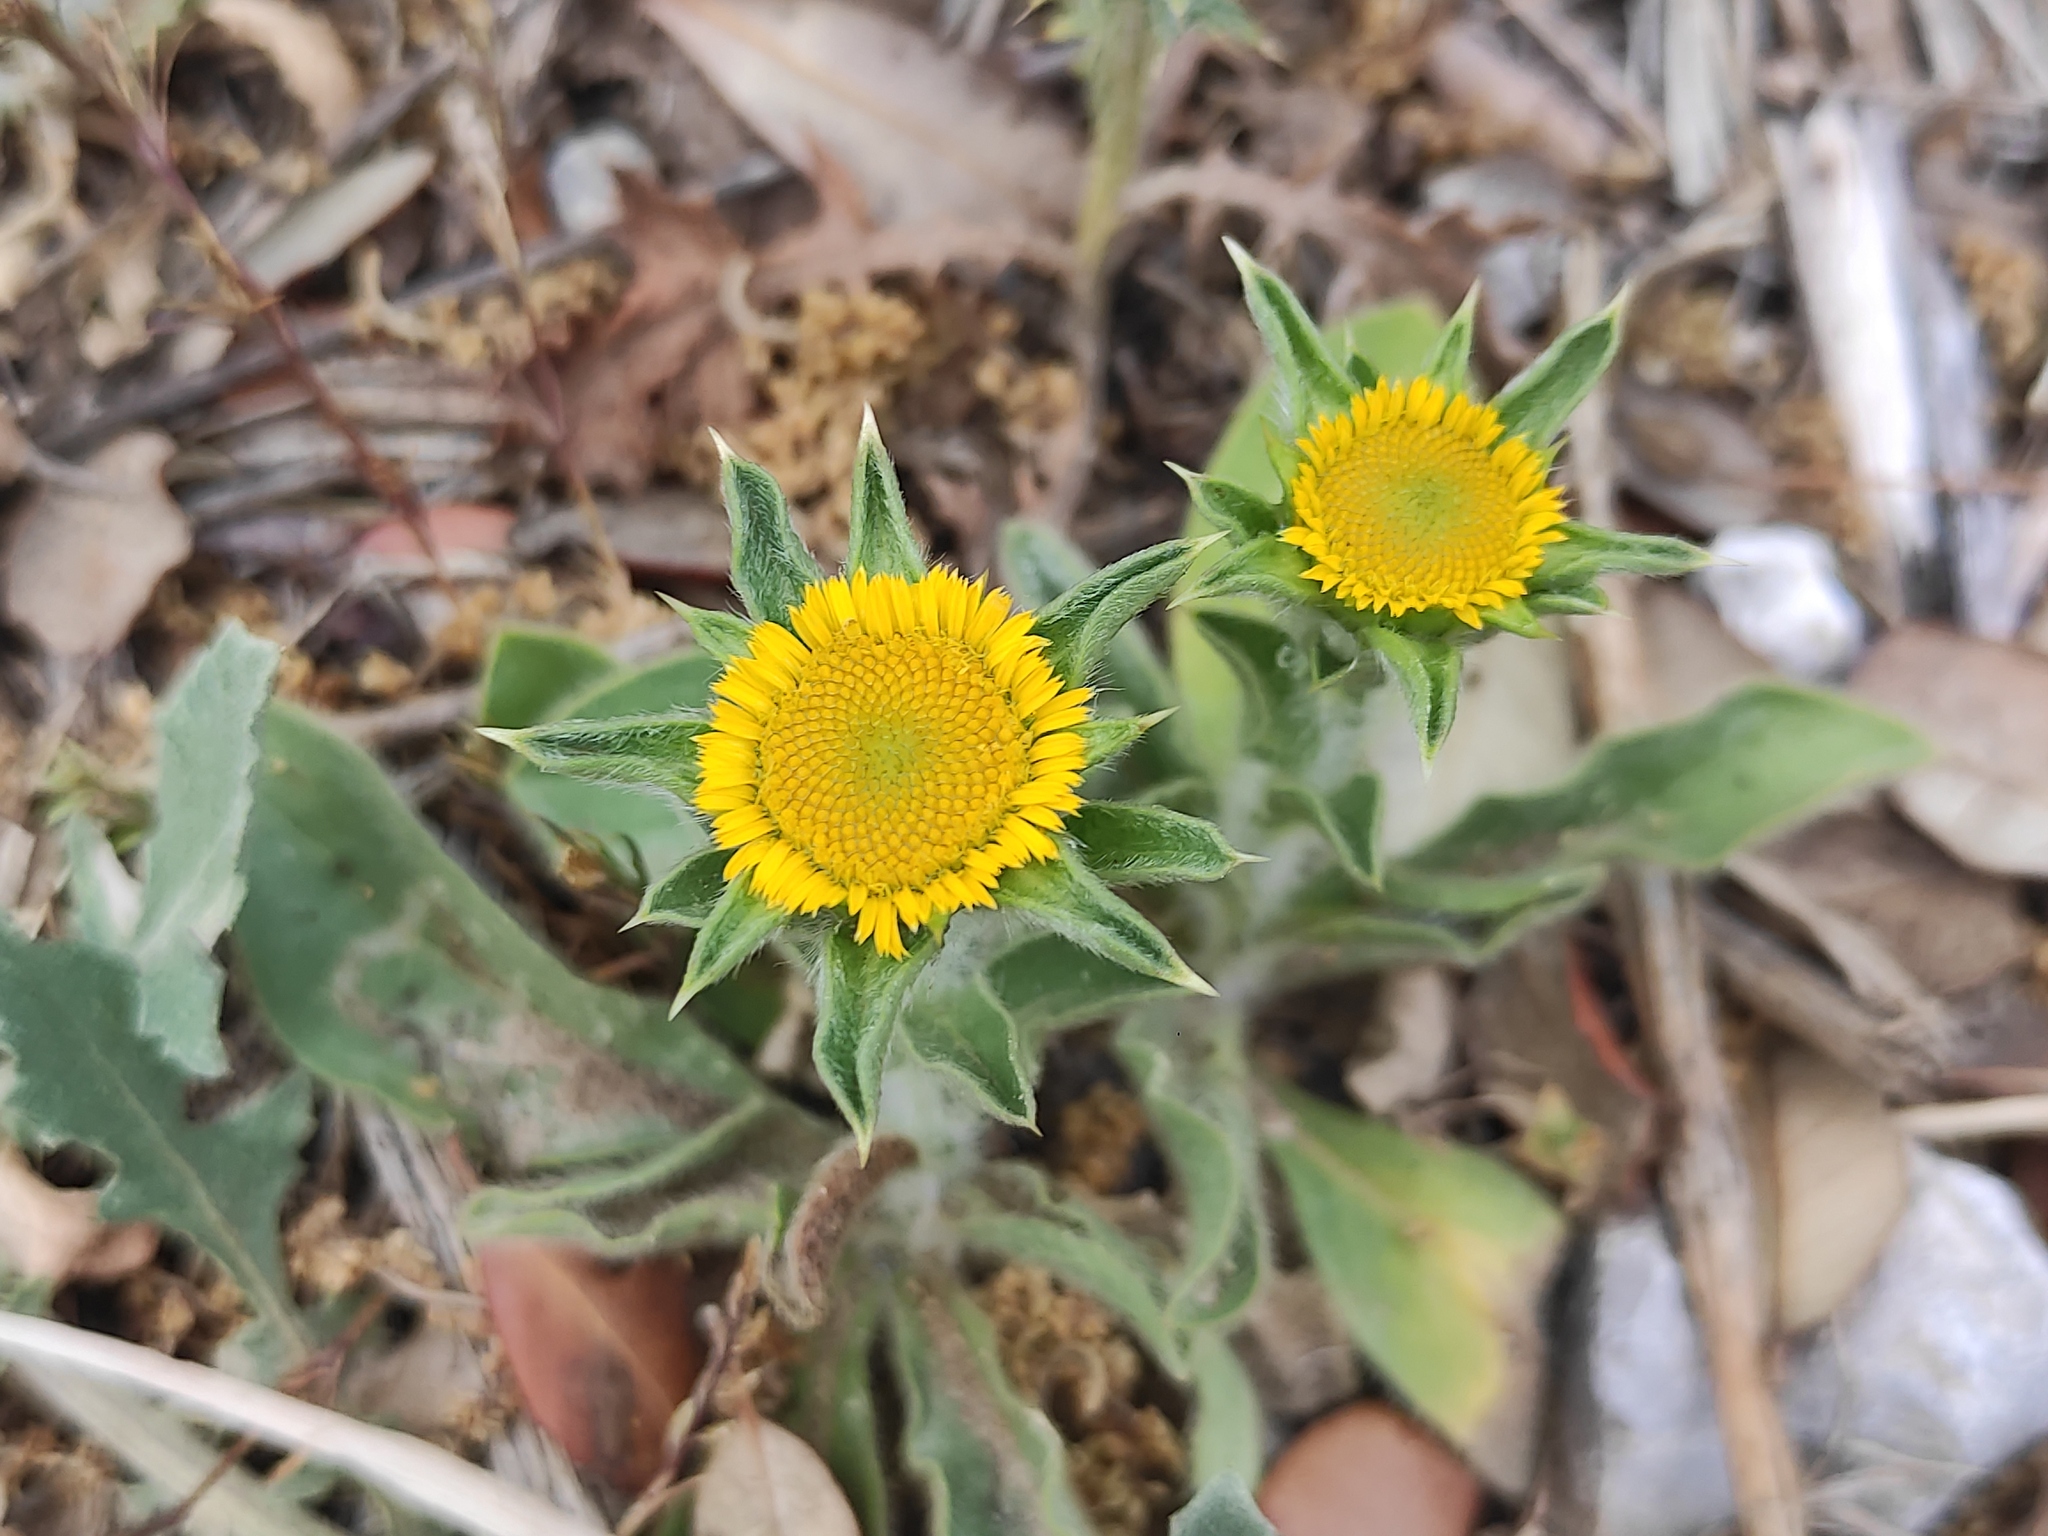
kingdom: Plantae
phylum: Tracheophyta
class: Magnoliopsida
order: Asterales
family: Asteraceae
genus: Pallenis
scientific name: Pallenis spinosa
